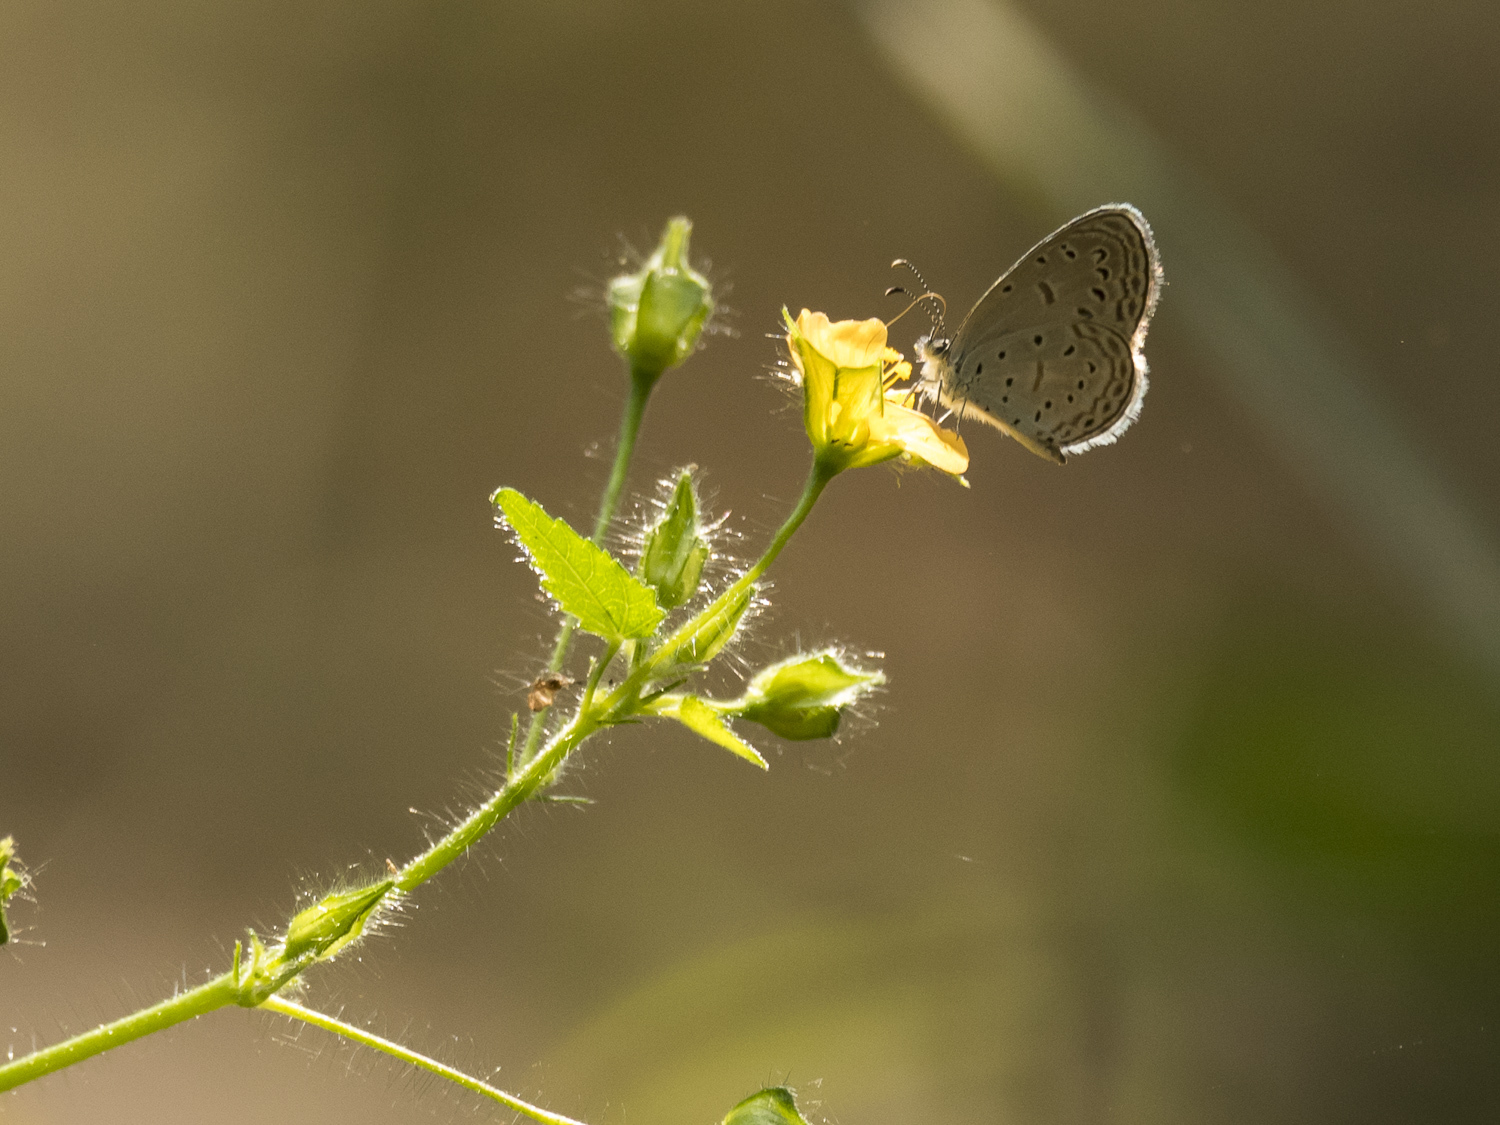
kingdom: Animalia
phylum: Arthropoda
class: Insecta
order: Lepidoptera
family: Lycaenidae
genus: Zizula
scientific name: Zizula hylax
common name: Gaika blue
